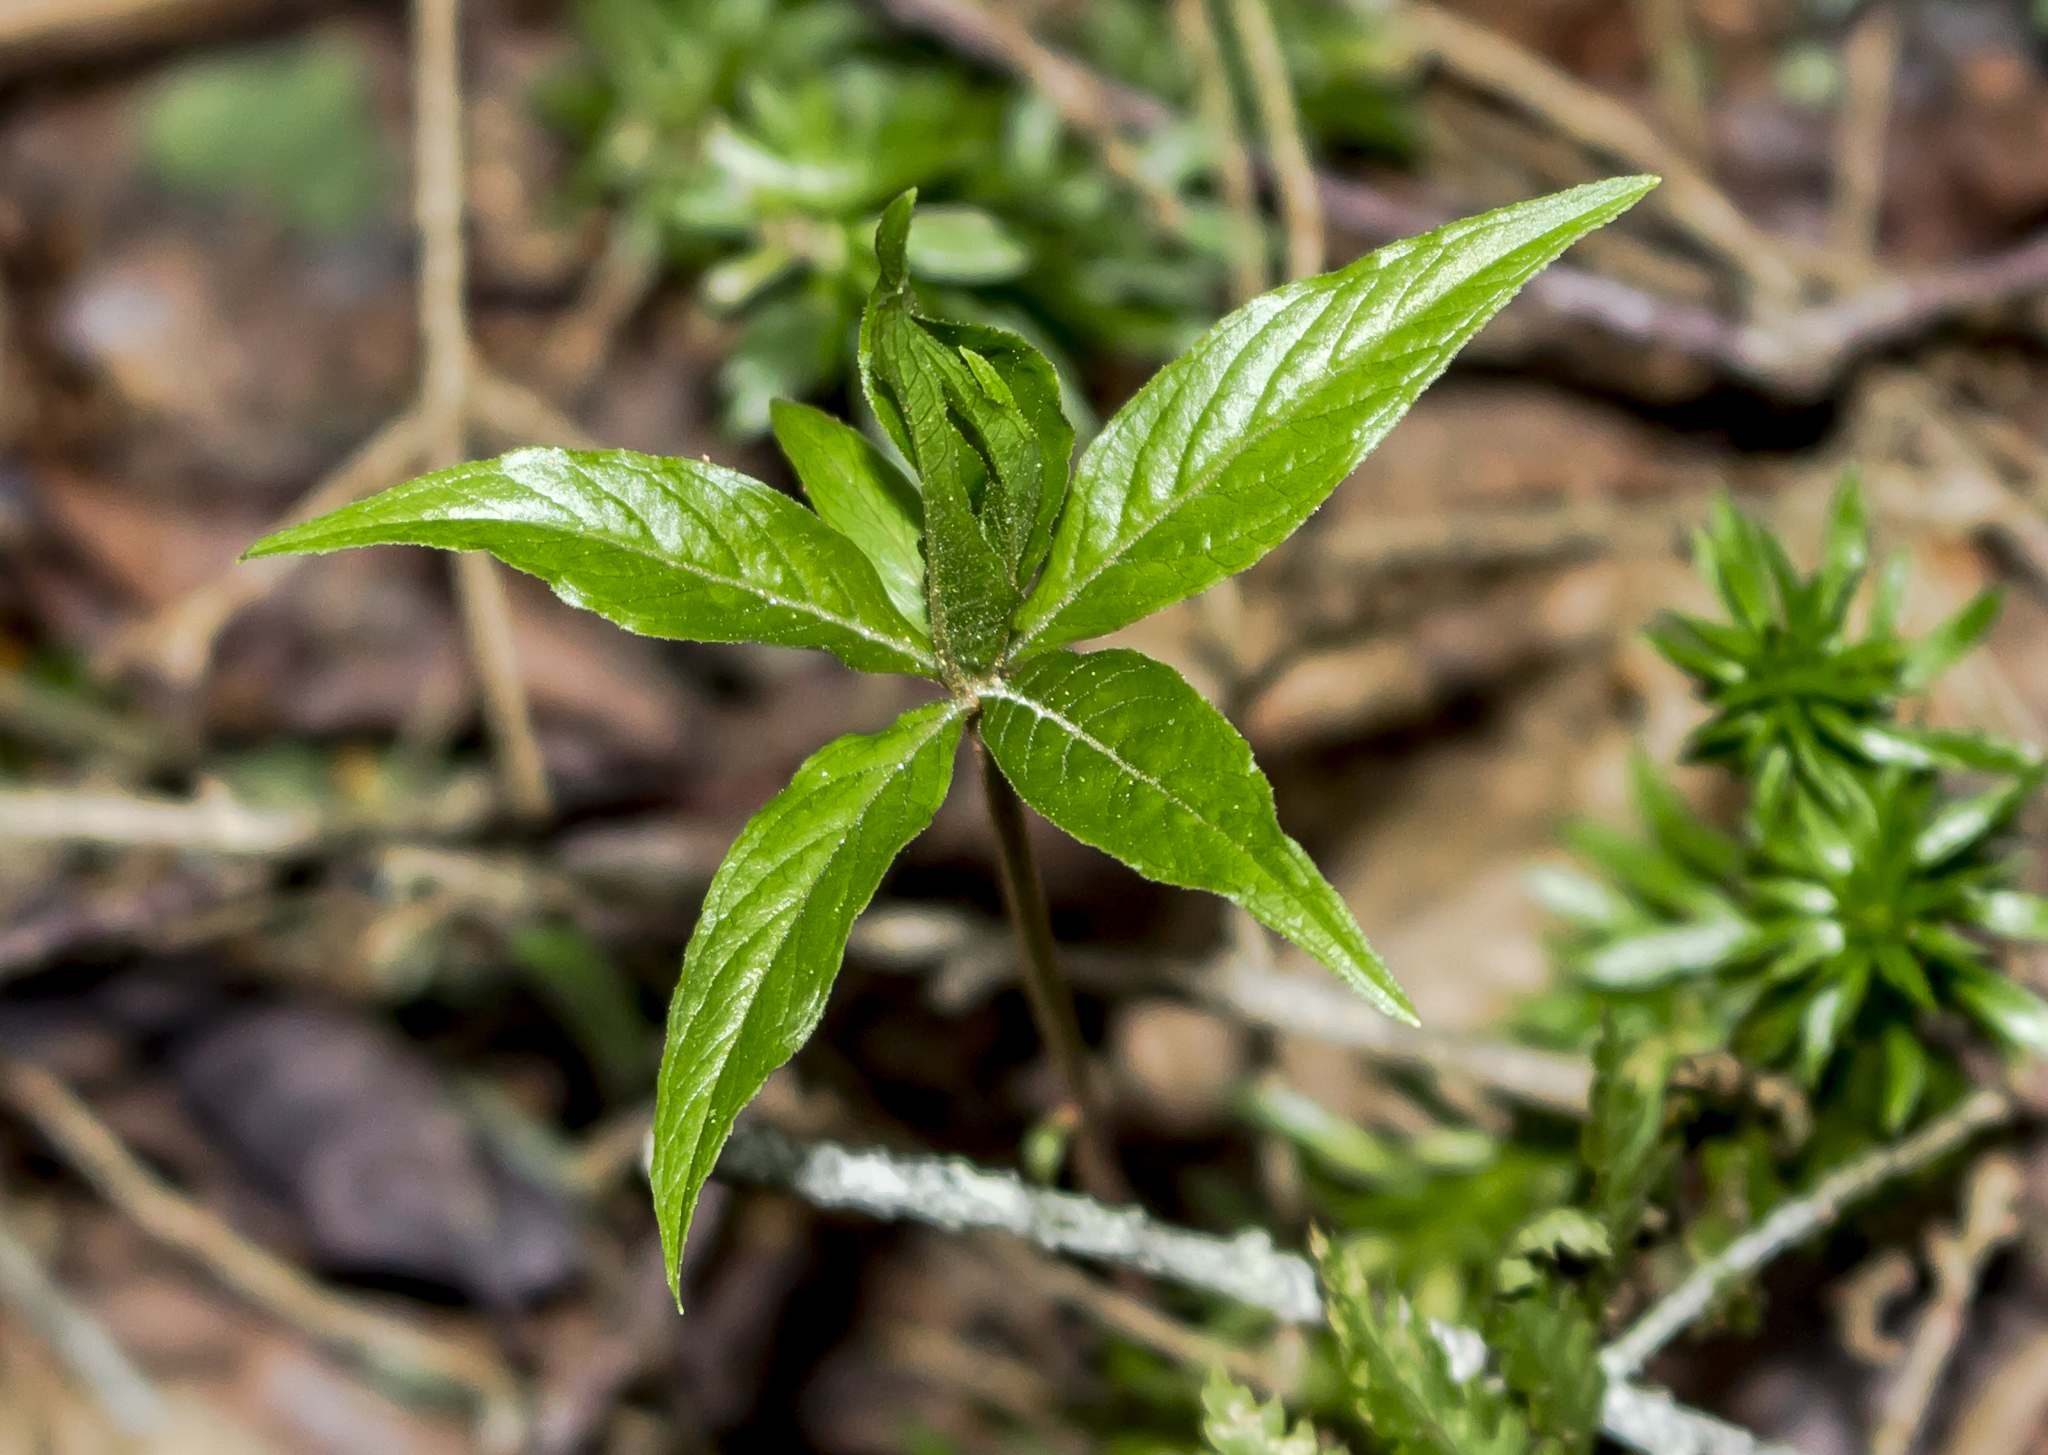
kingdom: Plantae
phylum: Tracheophyta
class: Magnoliopsida
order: Ericales
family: Primulaceae
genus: Lysimachia
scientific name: Lysimachia borealis
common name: American starflower
